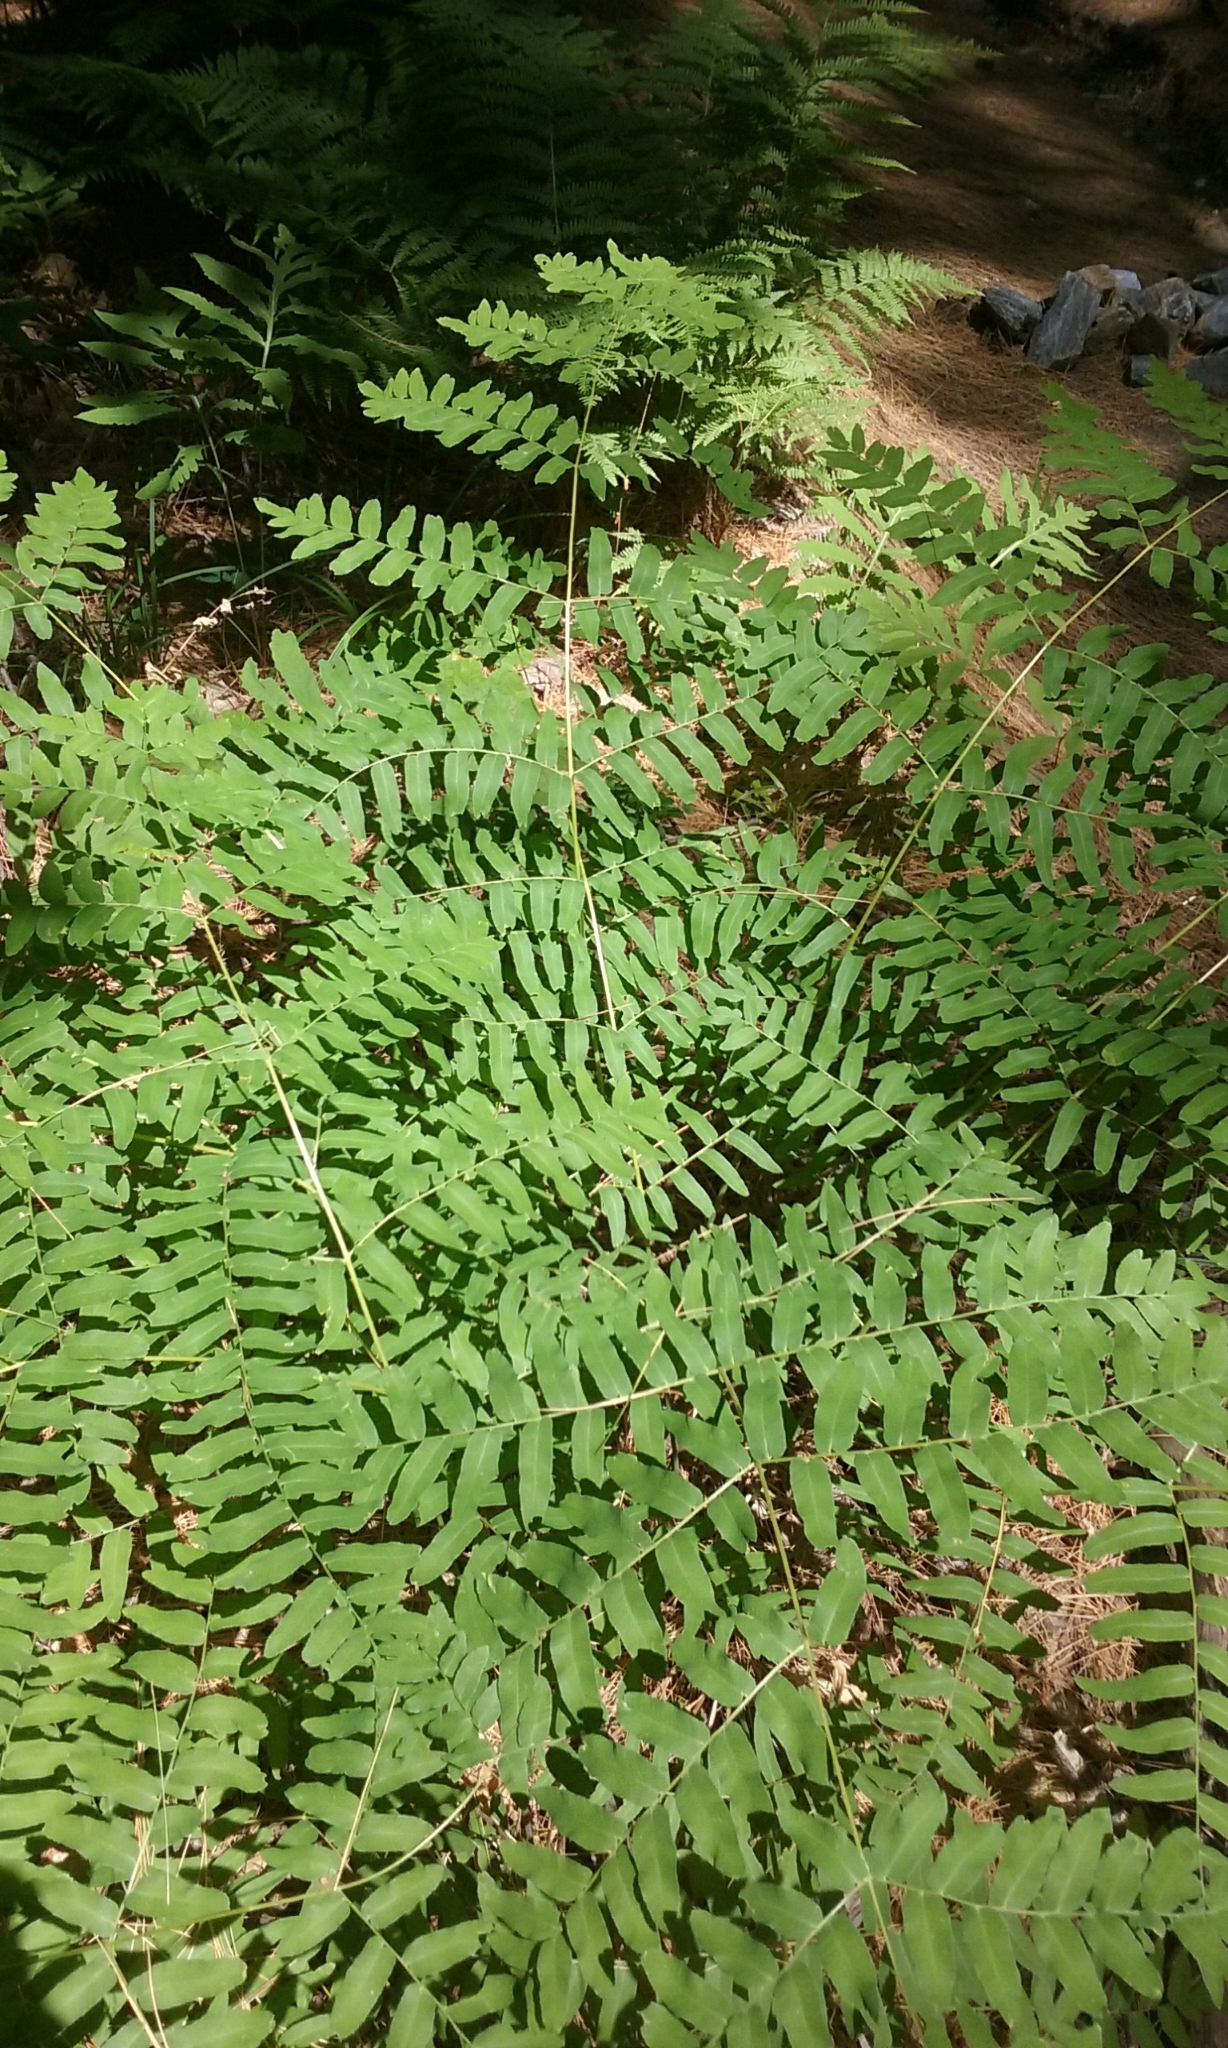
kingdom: Plantae
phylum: Tracheophyta
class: Polypodiopsida
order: Osmundales
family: Osmundaceae
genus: Osmunda
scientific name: Osmunda spectabilis
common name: American royal fern
